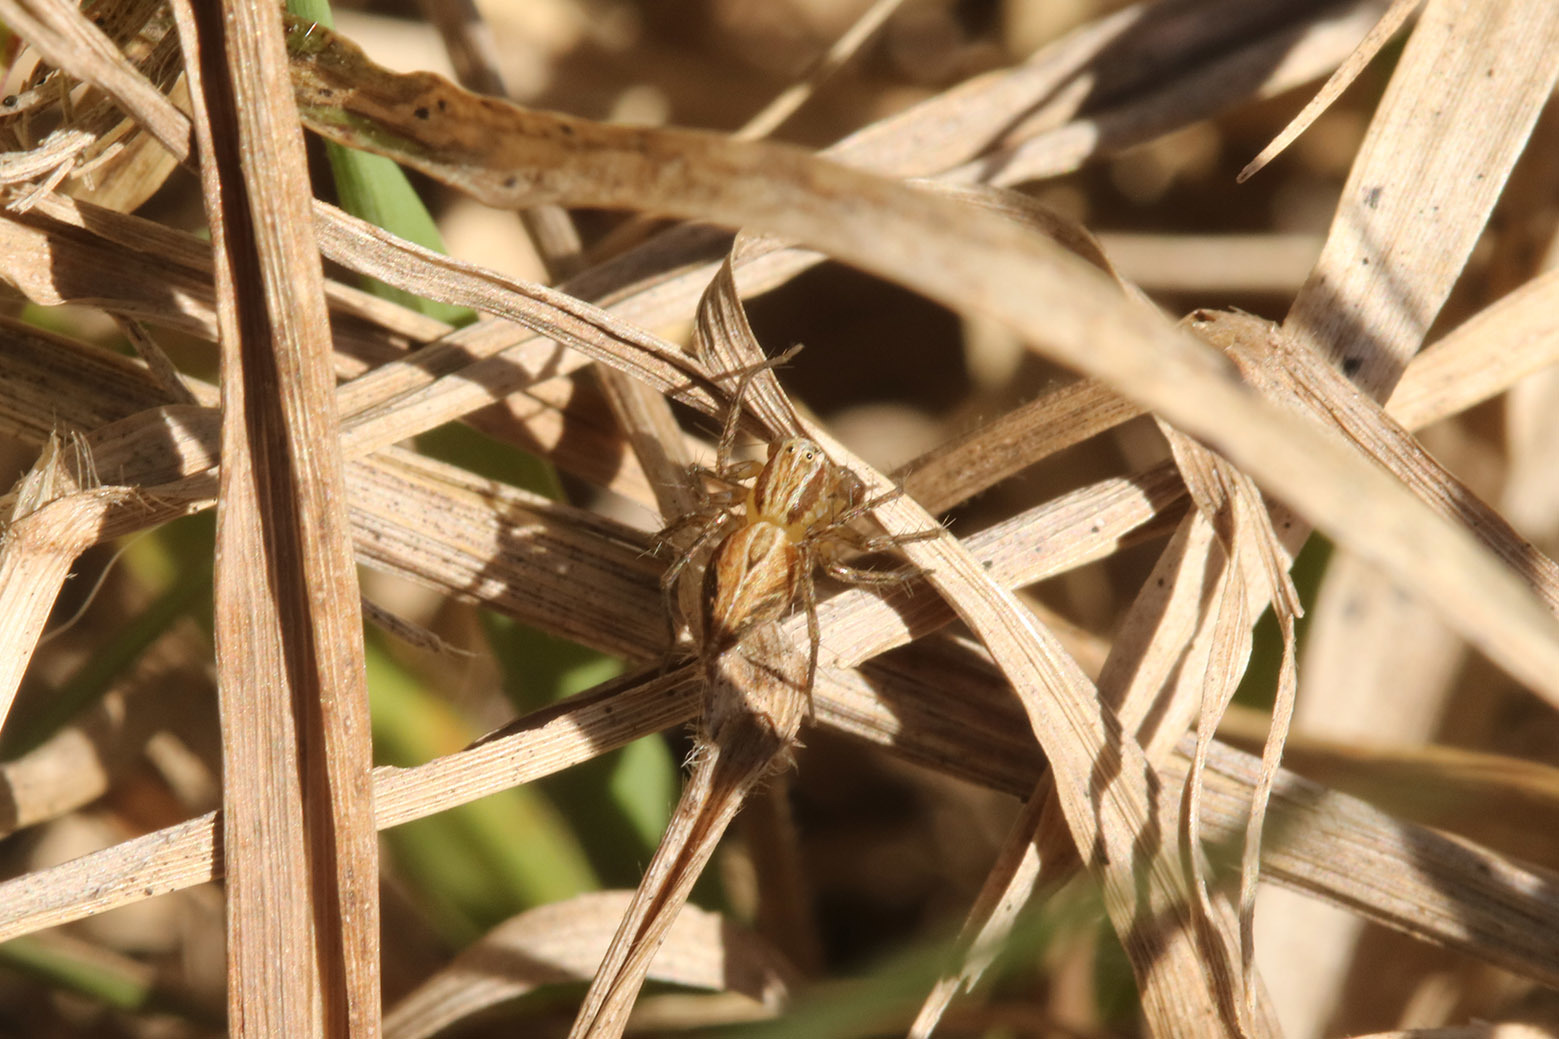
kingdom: Animalia
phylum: Arthropoda
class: Arachnida
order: Araneae
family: Oxyopidae
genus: Oxyopes
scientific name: Oxyopes salticus
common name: Lynx spiders
